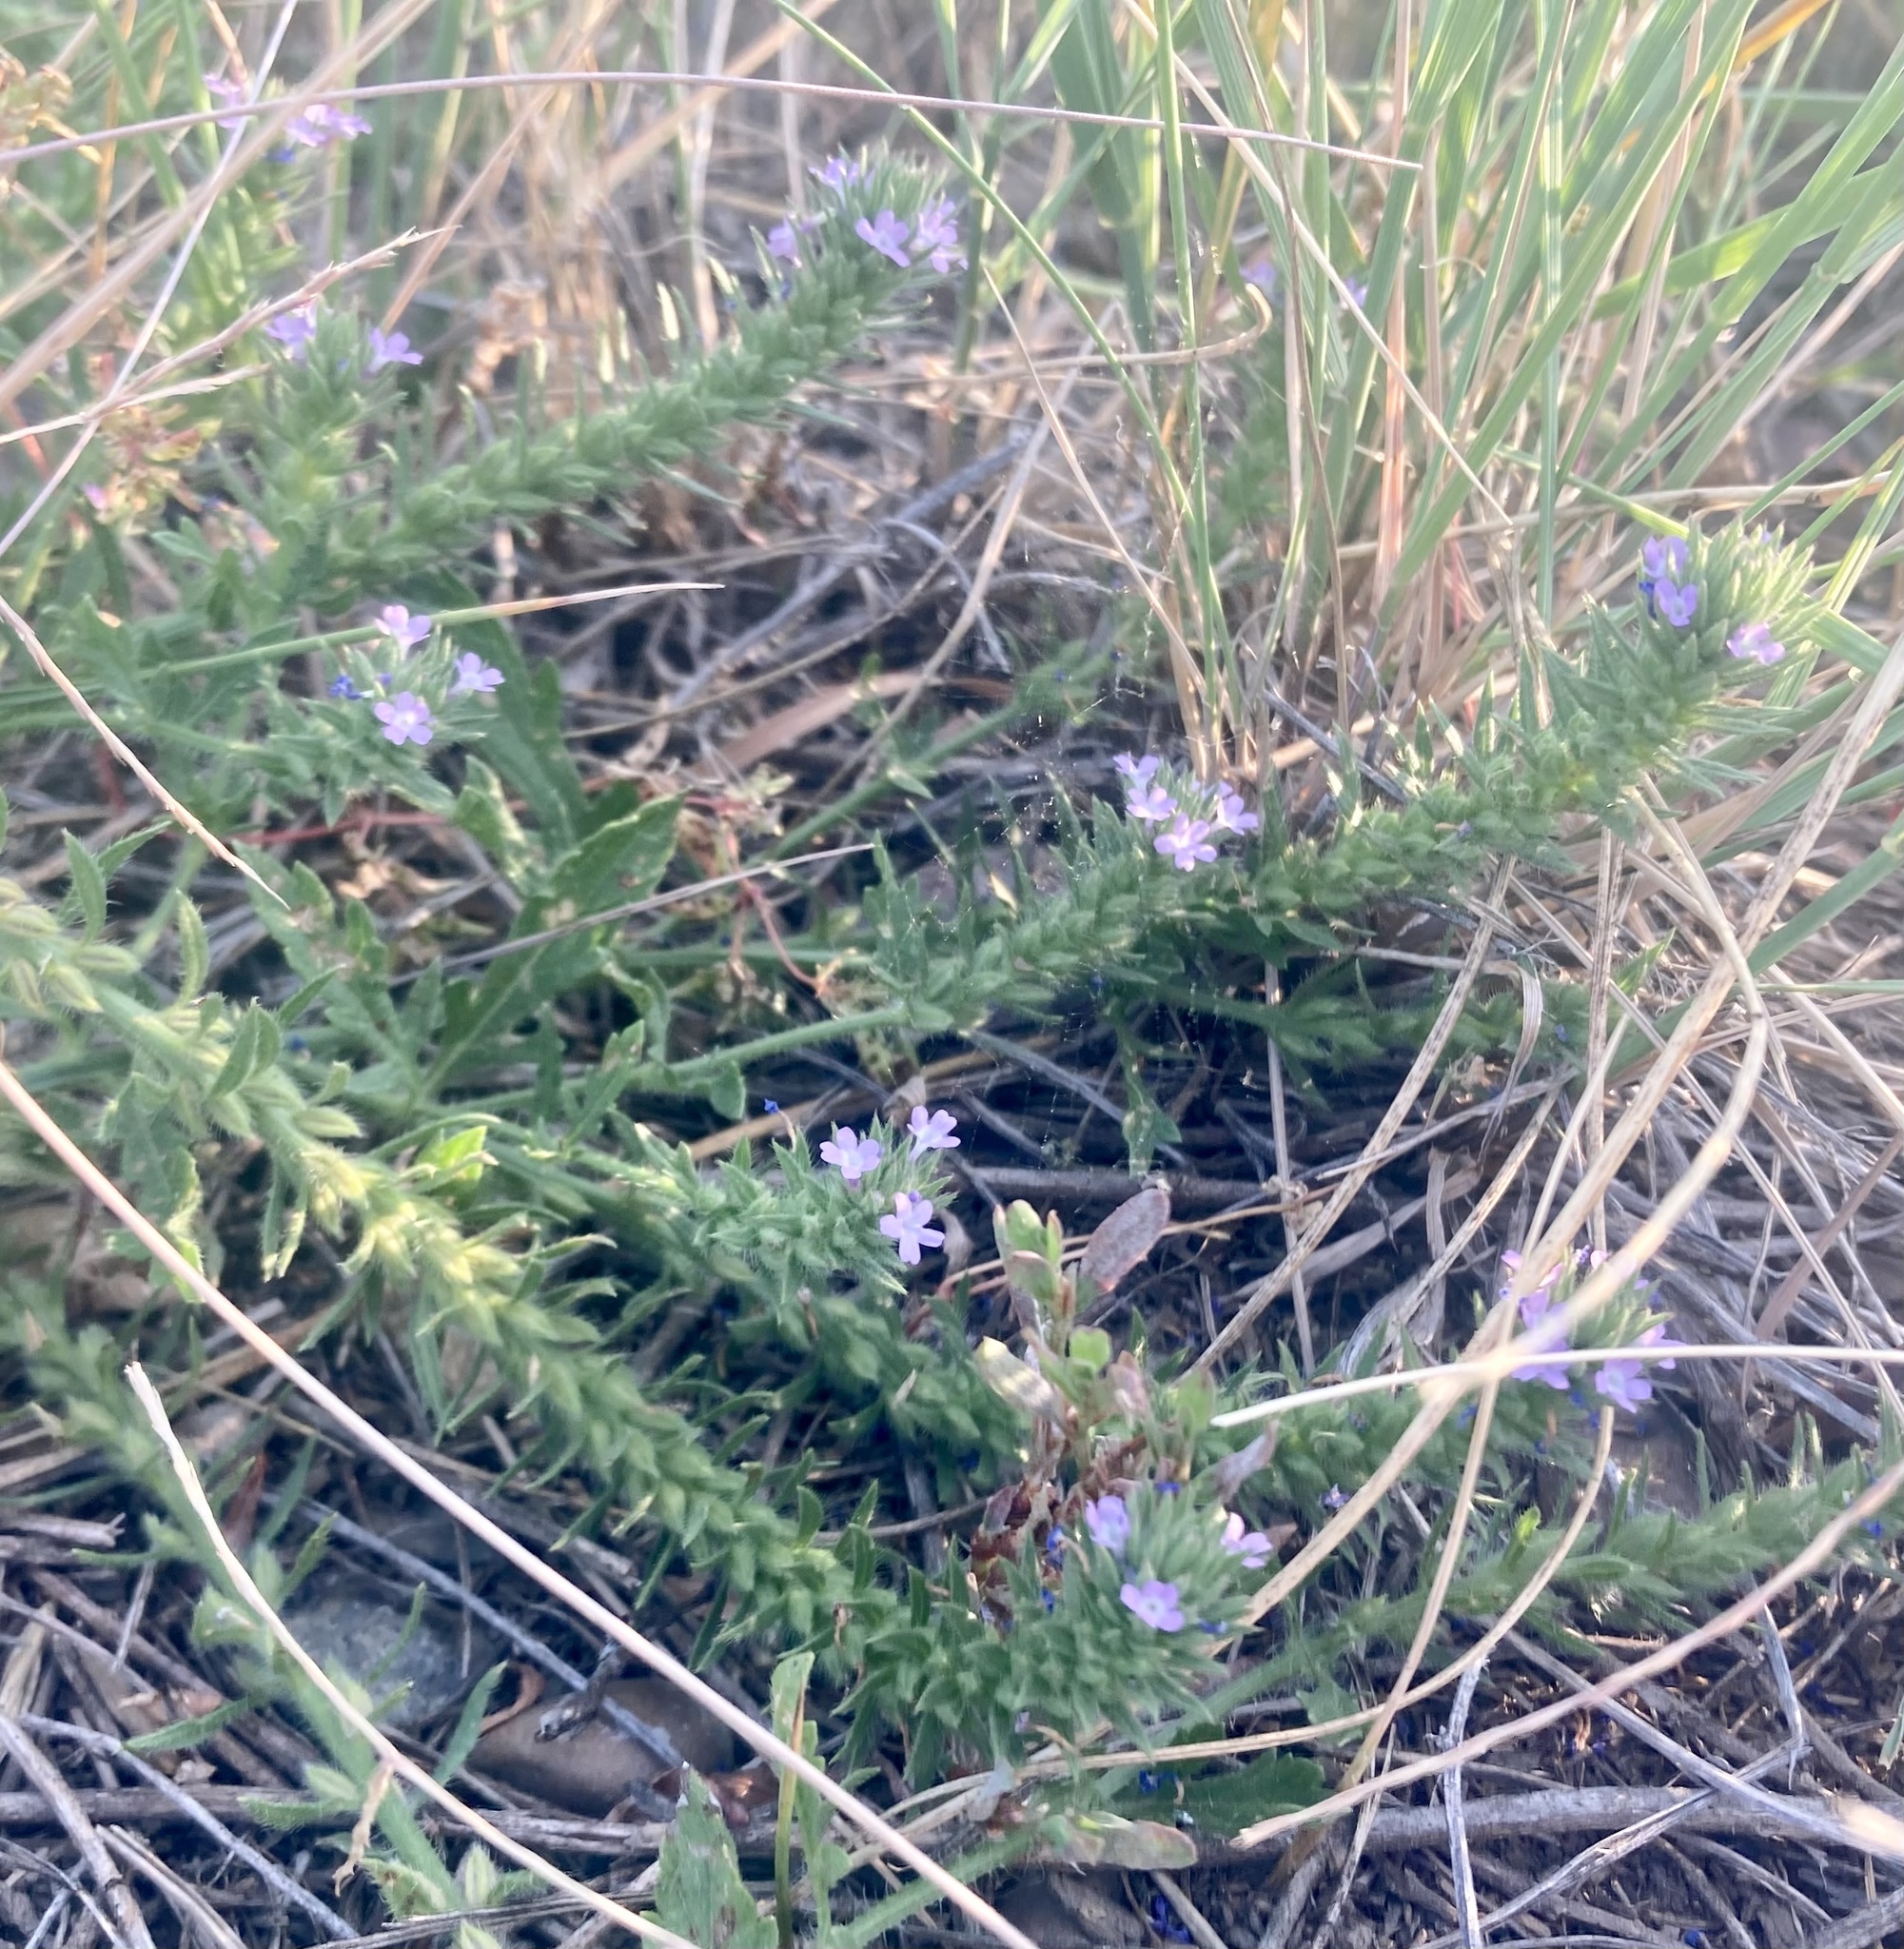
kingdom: Plantae
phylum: Tracheophyta
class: Magnoliopsida
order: Lamiales
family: Verbenaceae
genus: Verbena
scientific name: Verbena bracteata
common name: Bracted vervain
